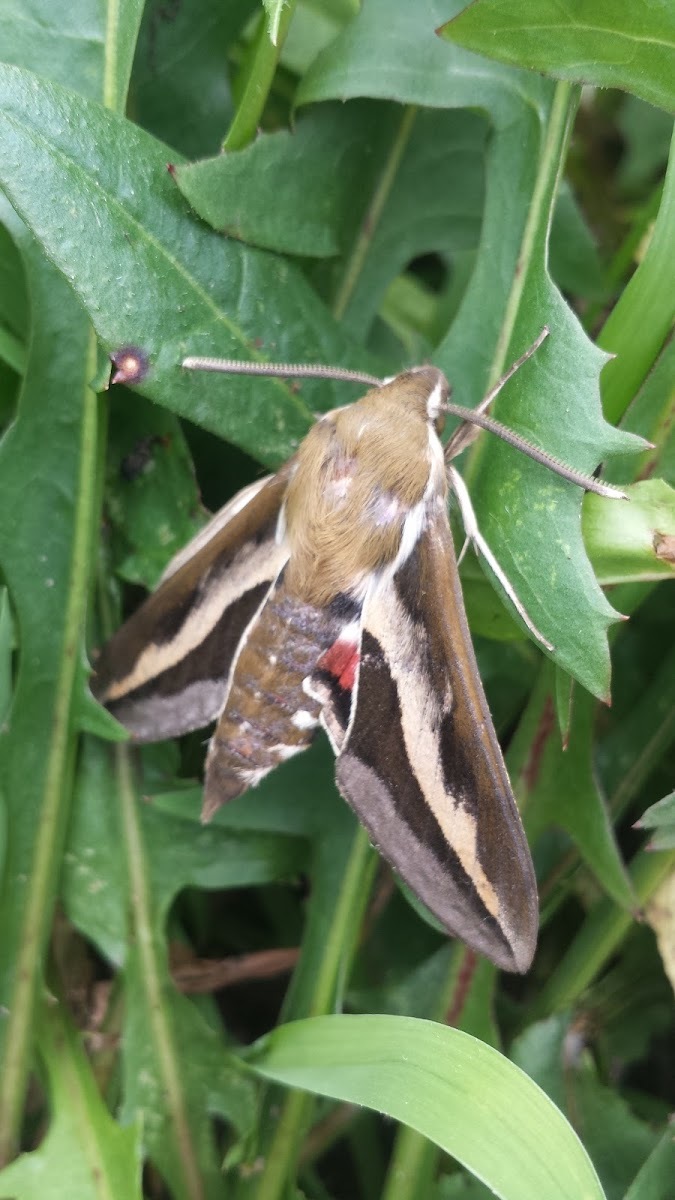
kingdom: Animalia
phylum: Arthropoda
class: Insecta
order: Lepidoptera
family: Sphingidae
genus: Hyles
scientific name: Hyles gallii
